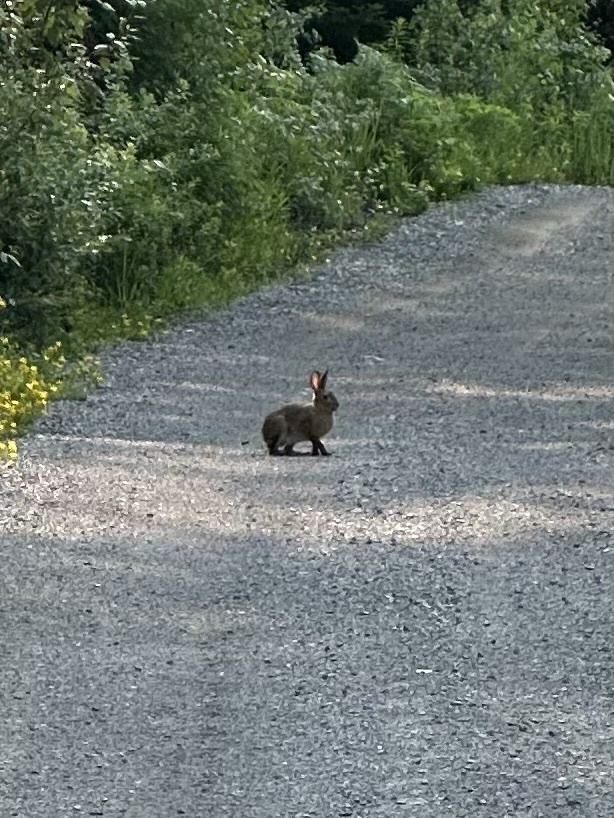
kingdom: Animalia
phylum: Chordata
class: Mammalia
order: Lagomorpha
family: Leporidae
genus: Lepus
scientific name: Lepus americanus
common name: Snowshoe hare
